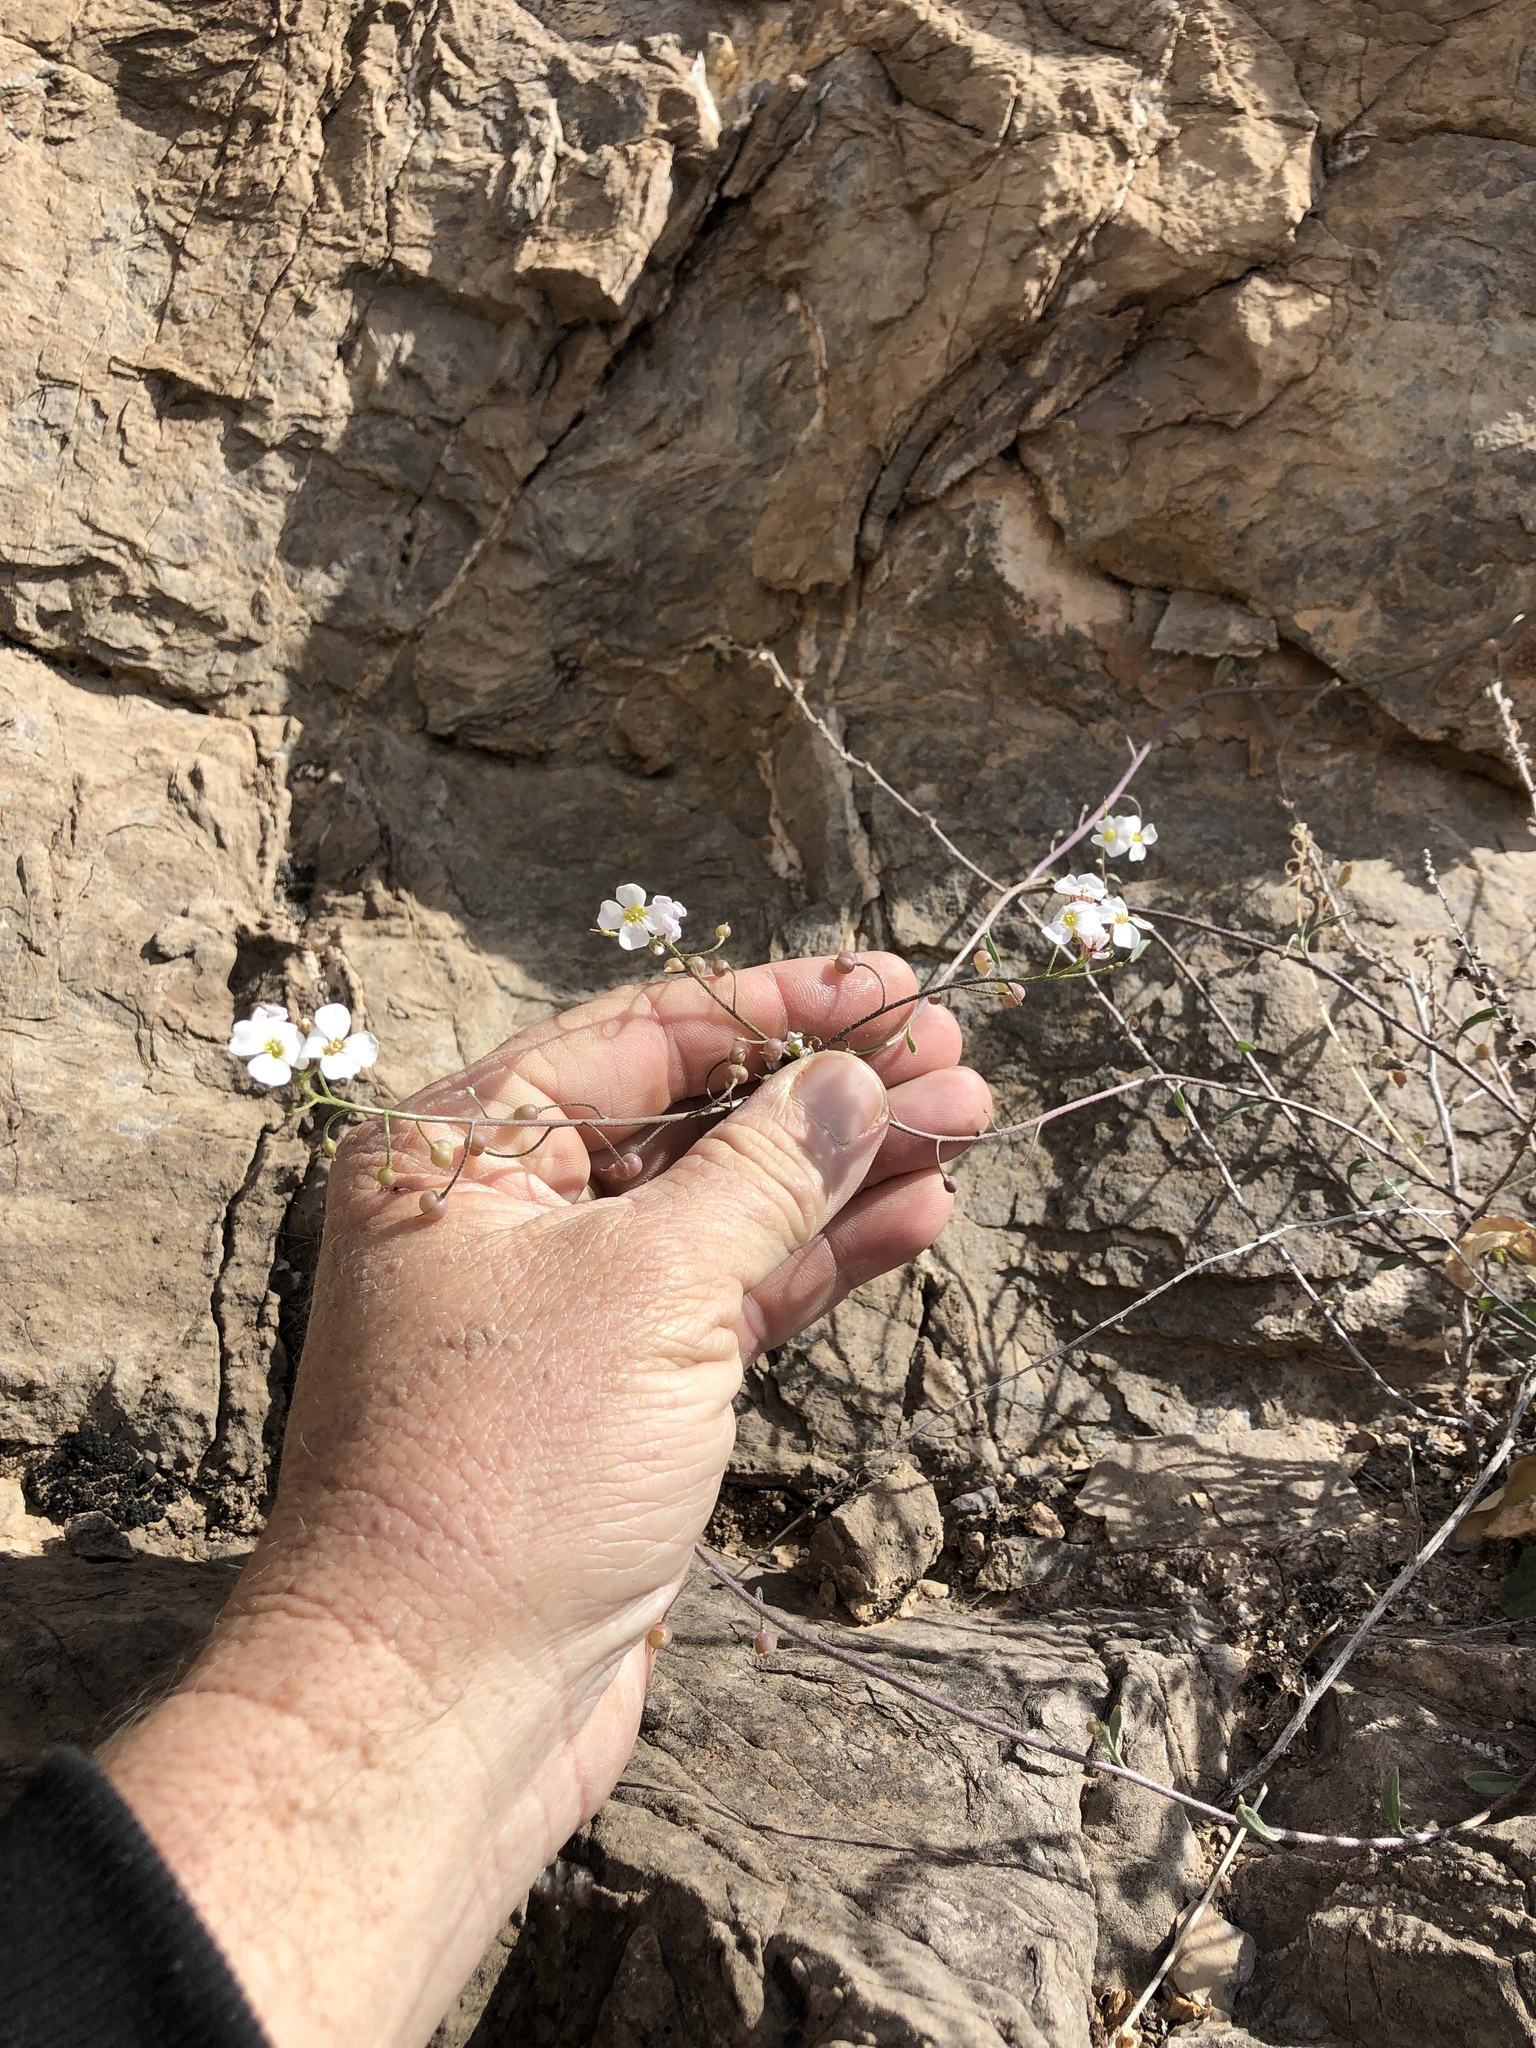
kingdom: Plantae
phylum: Tracheophyta
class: Magnoliopsida
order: Brassicales
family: Brassicaceae
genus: Physaria
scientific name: Physaria purpurea
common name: Rose bladderpod
